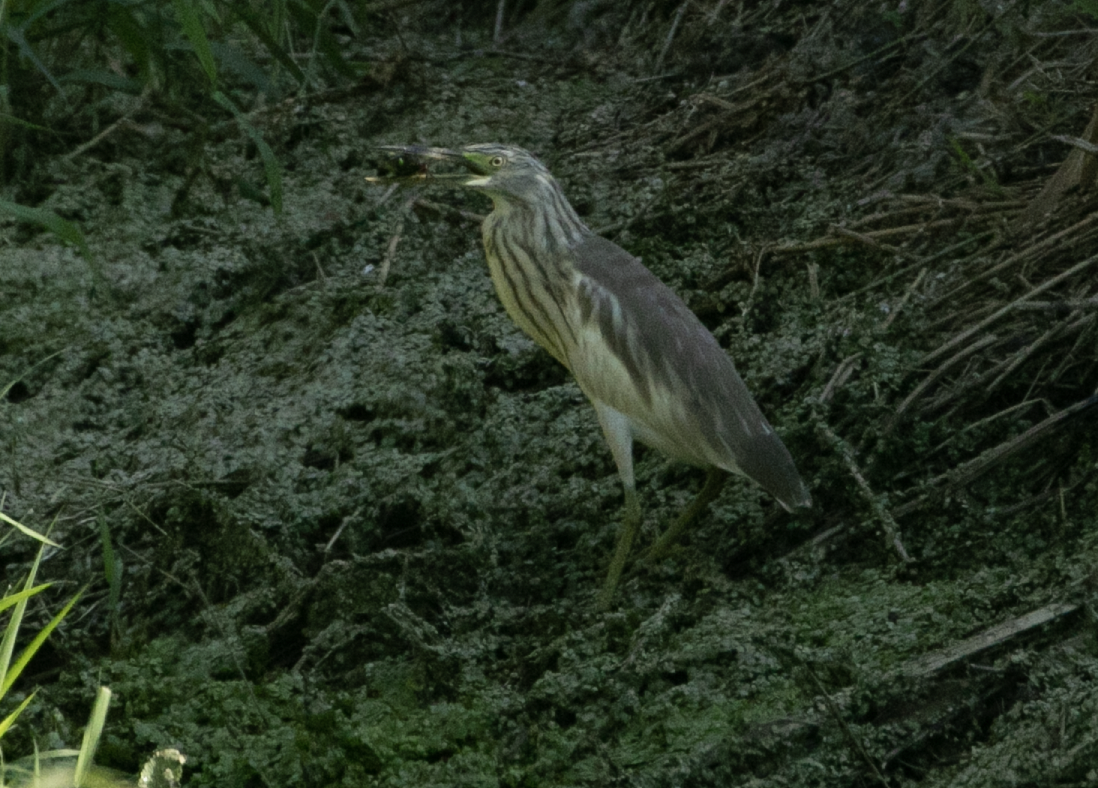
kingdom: Animalia
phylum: Chordata
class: Aves
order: Pelecaniformes
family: Ardeidae
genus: Ardeola
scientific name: Ardeola ralloides
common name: Squacco heron
